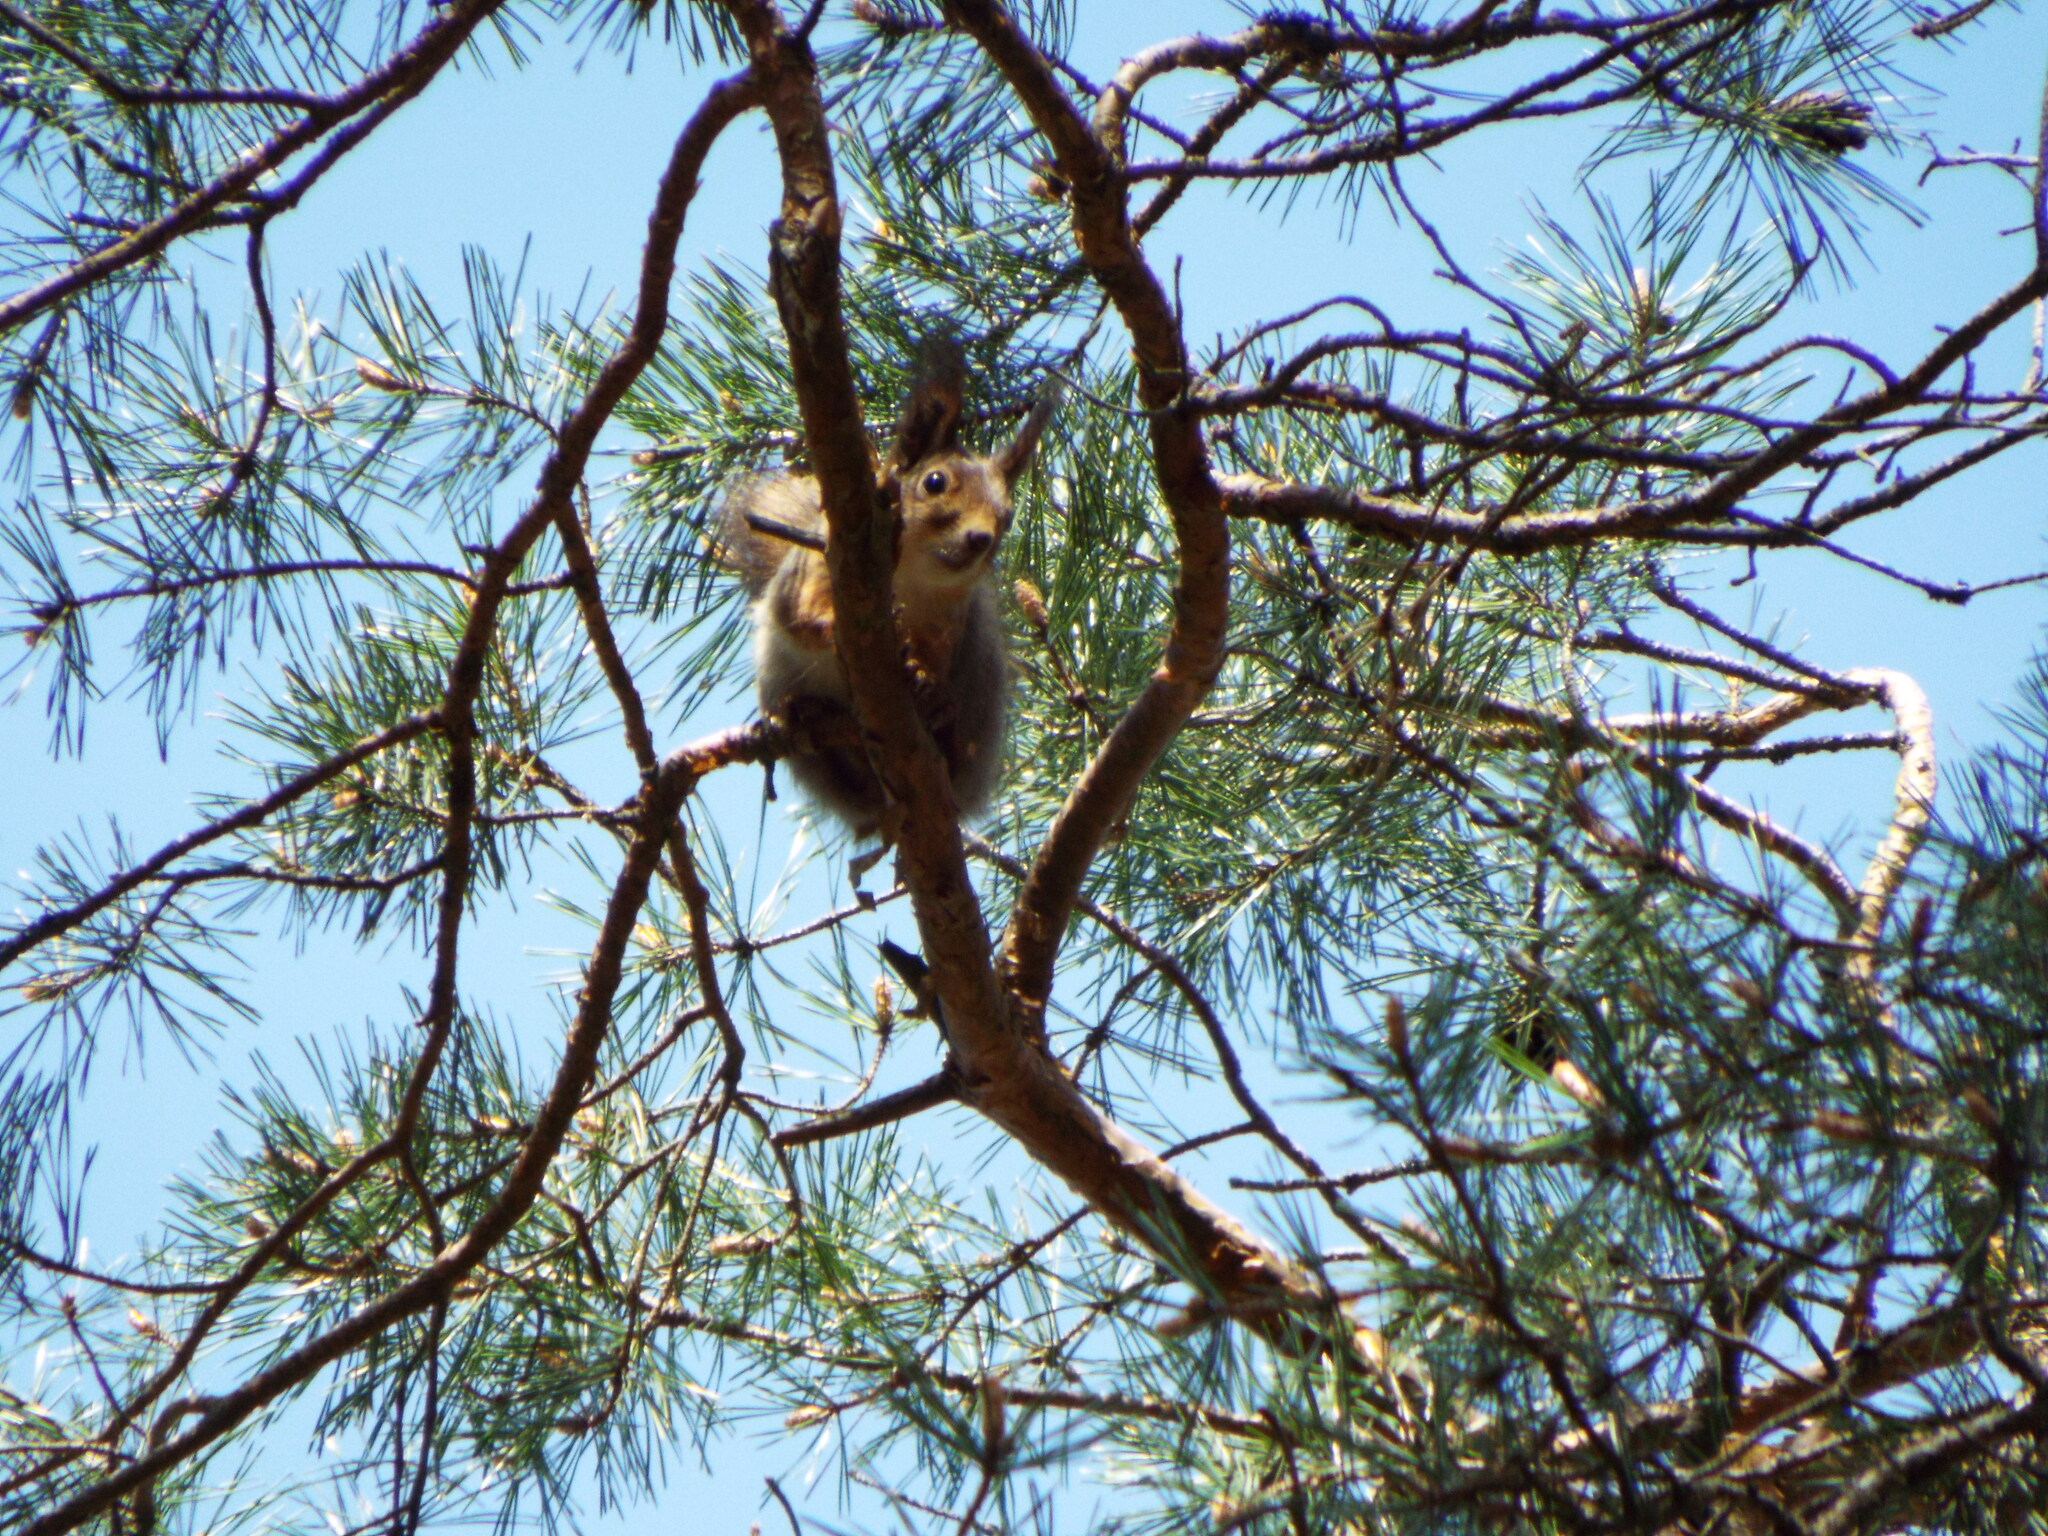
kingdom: Animalia
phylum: Chordata
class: Mammalia
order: Rodentia
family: Sciuridae
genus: Sciurus
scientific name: Sciurus vulgaris
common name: Eurasian red squirrel
